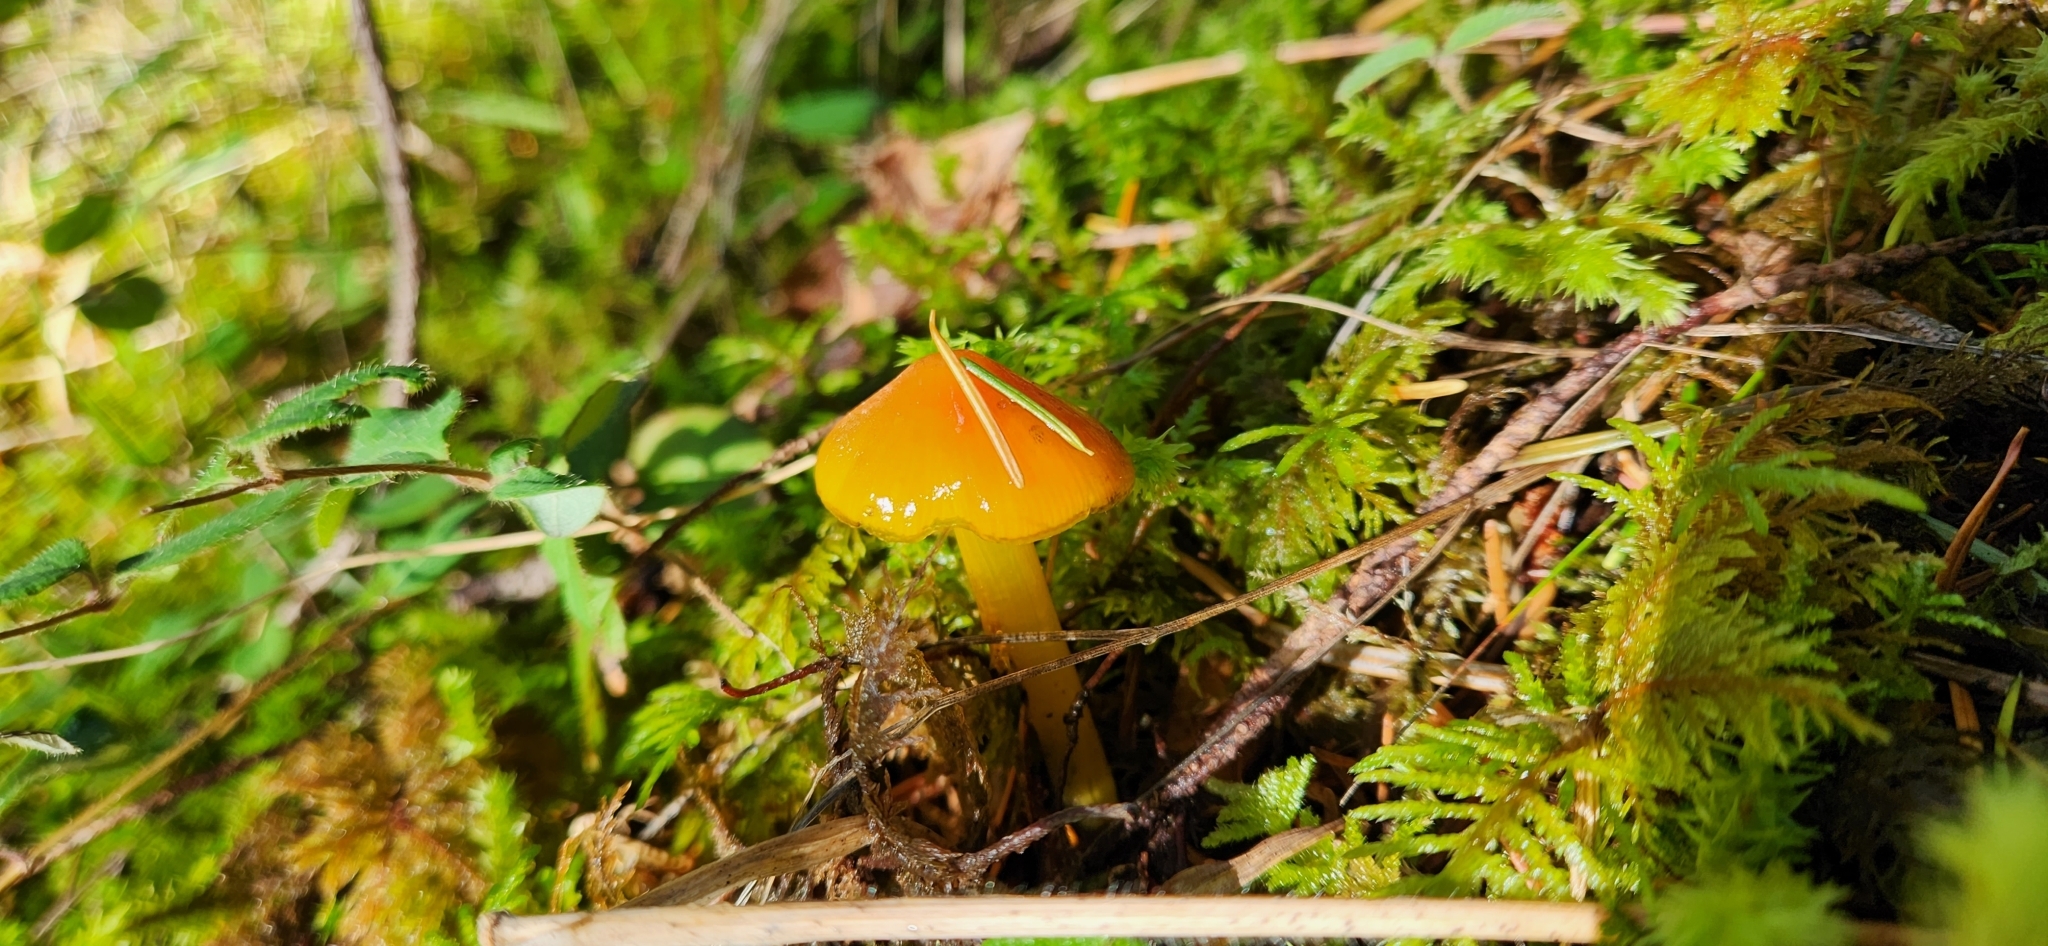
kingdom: Fungi
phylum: Basidiomycota
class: Agaricomycetes
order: Agaricales
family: Hygrophoraceae
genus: Hygrocybe
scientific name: Hygrocybe singeri
